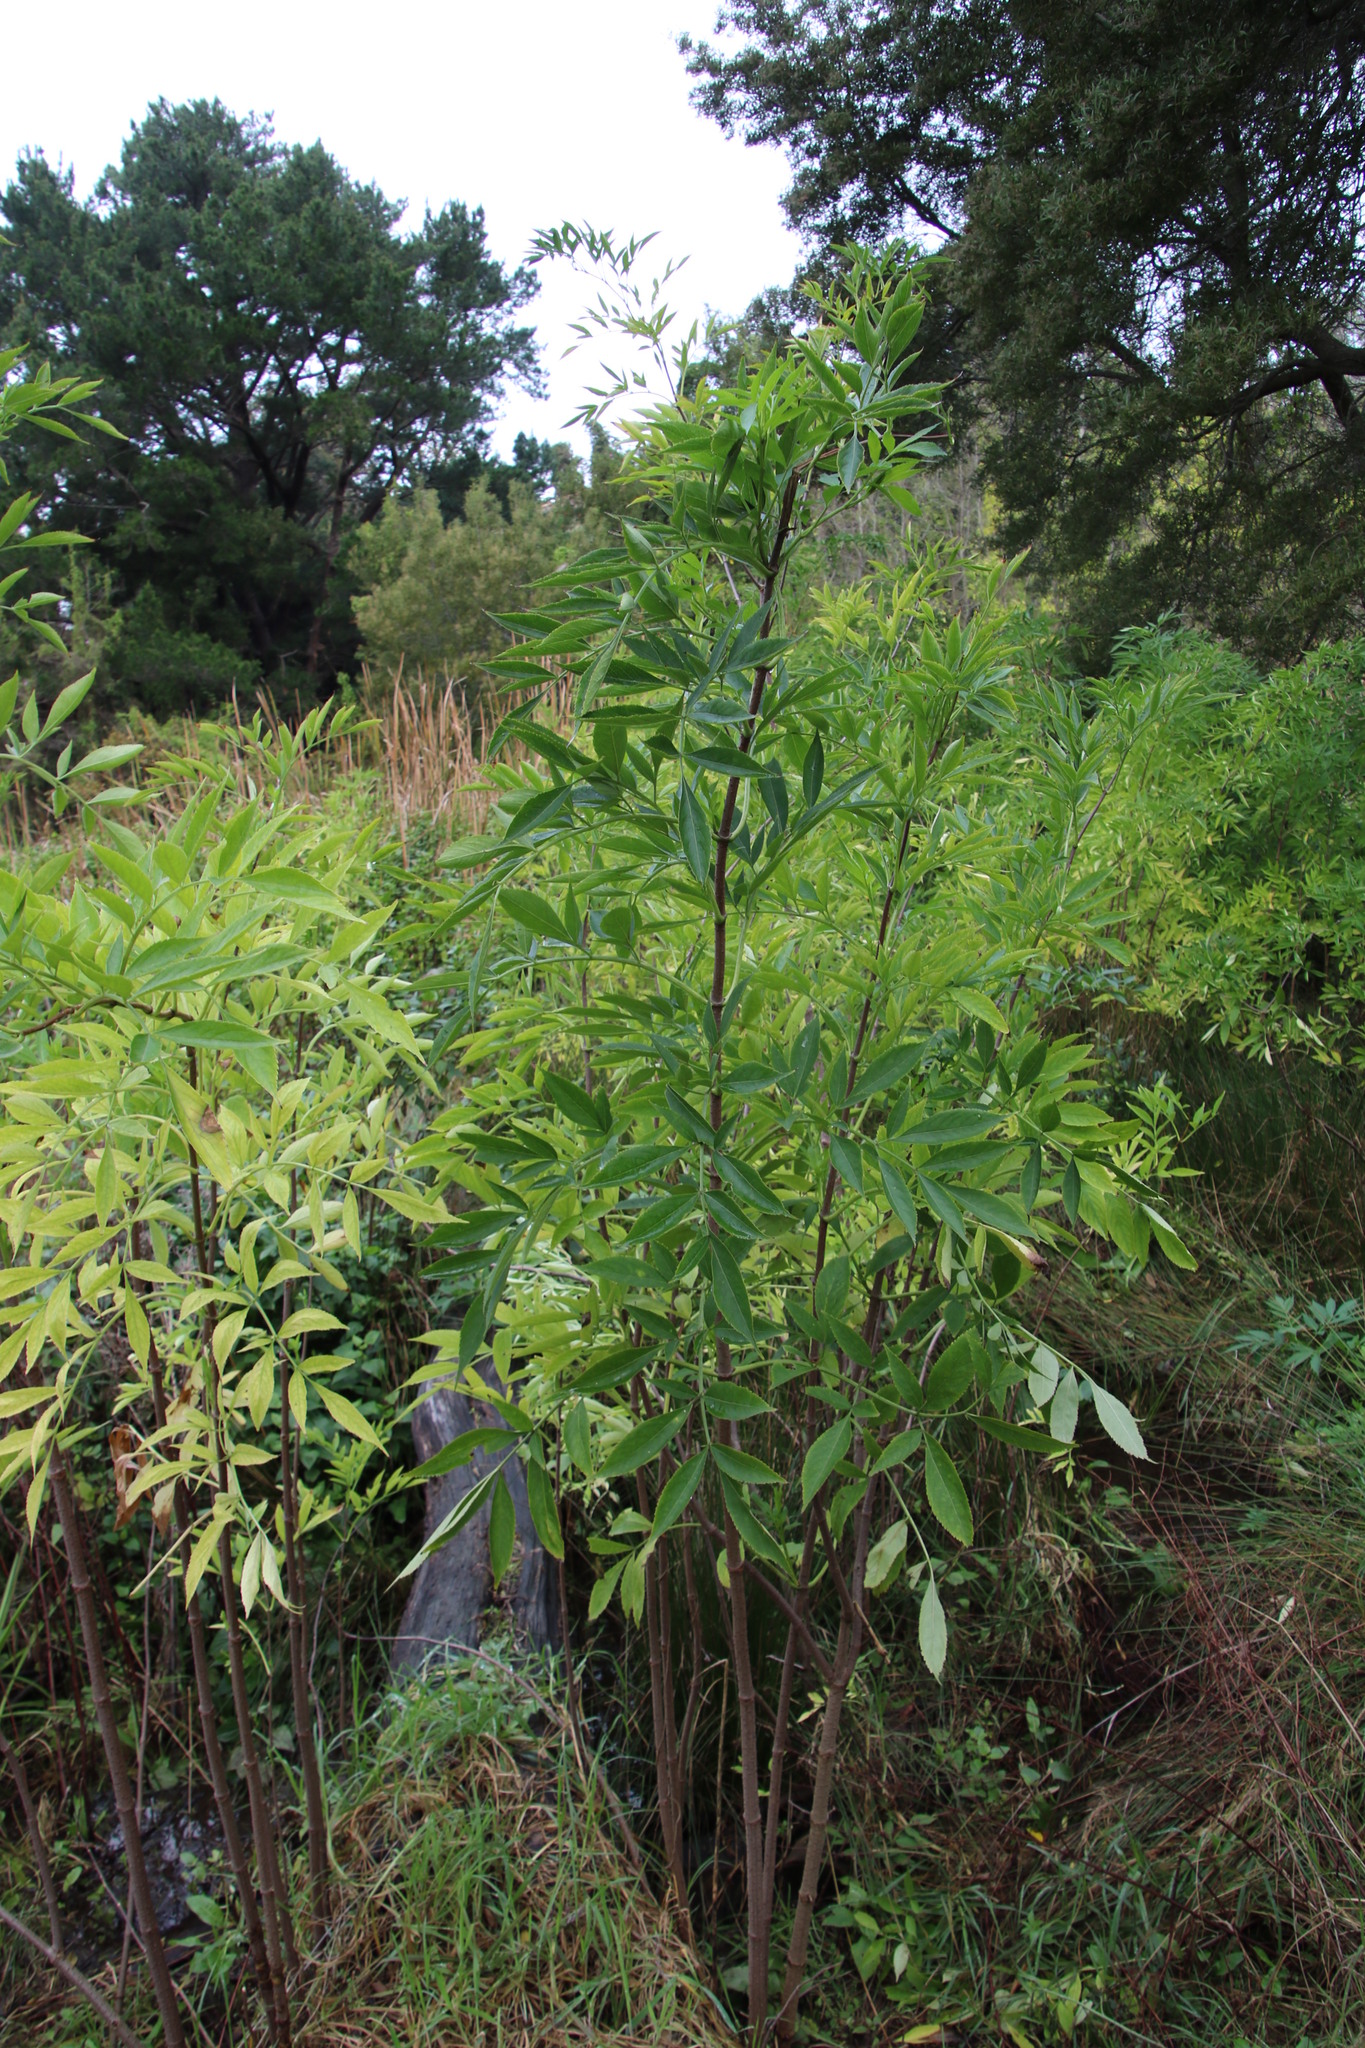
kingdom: Plantae
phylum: Tracheophyta
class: Magnoliopsida
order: Dipsacales
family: Viburnaceae
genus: Sambucus
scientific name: Sambucus canadensis
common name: American elder
